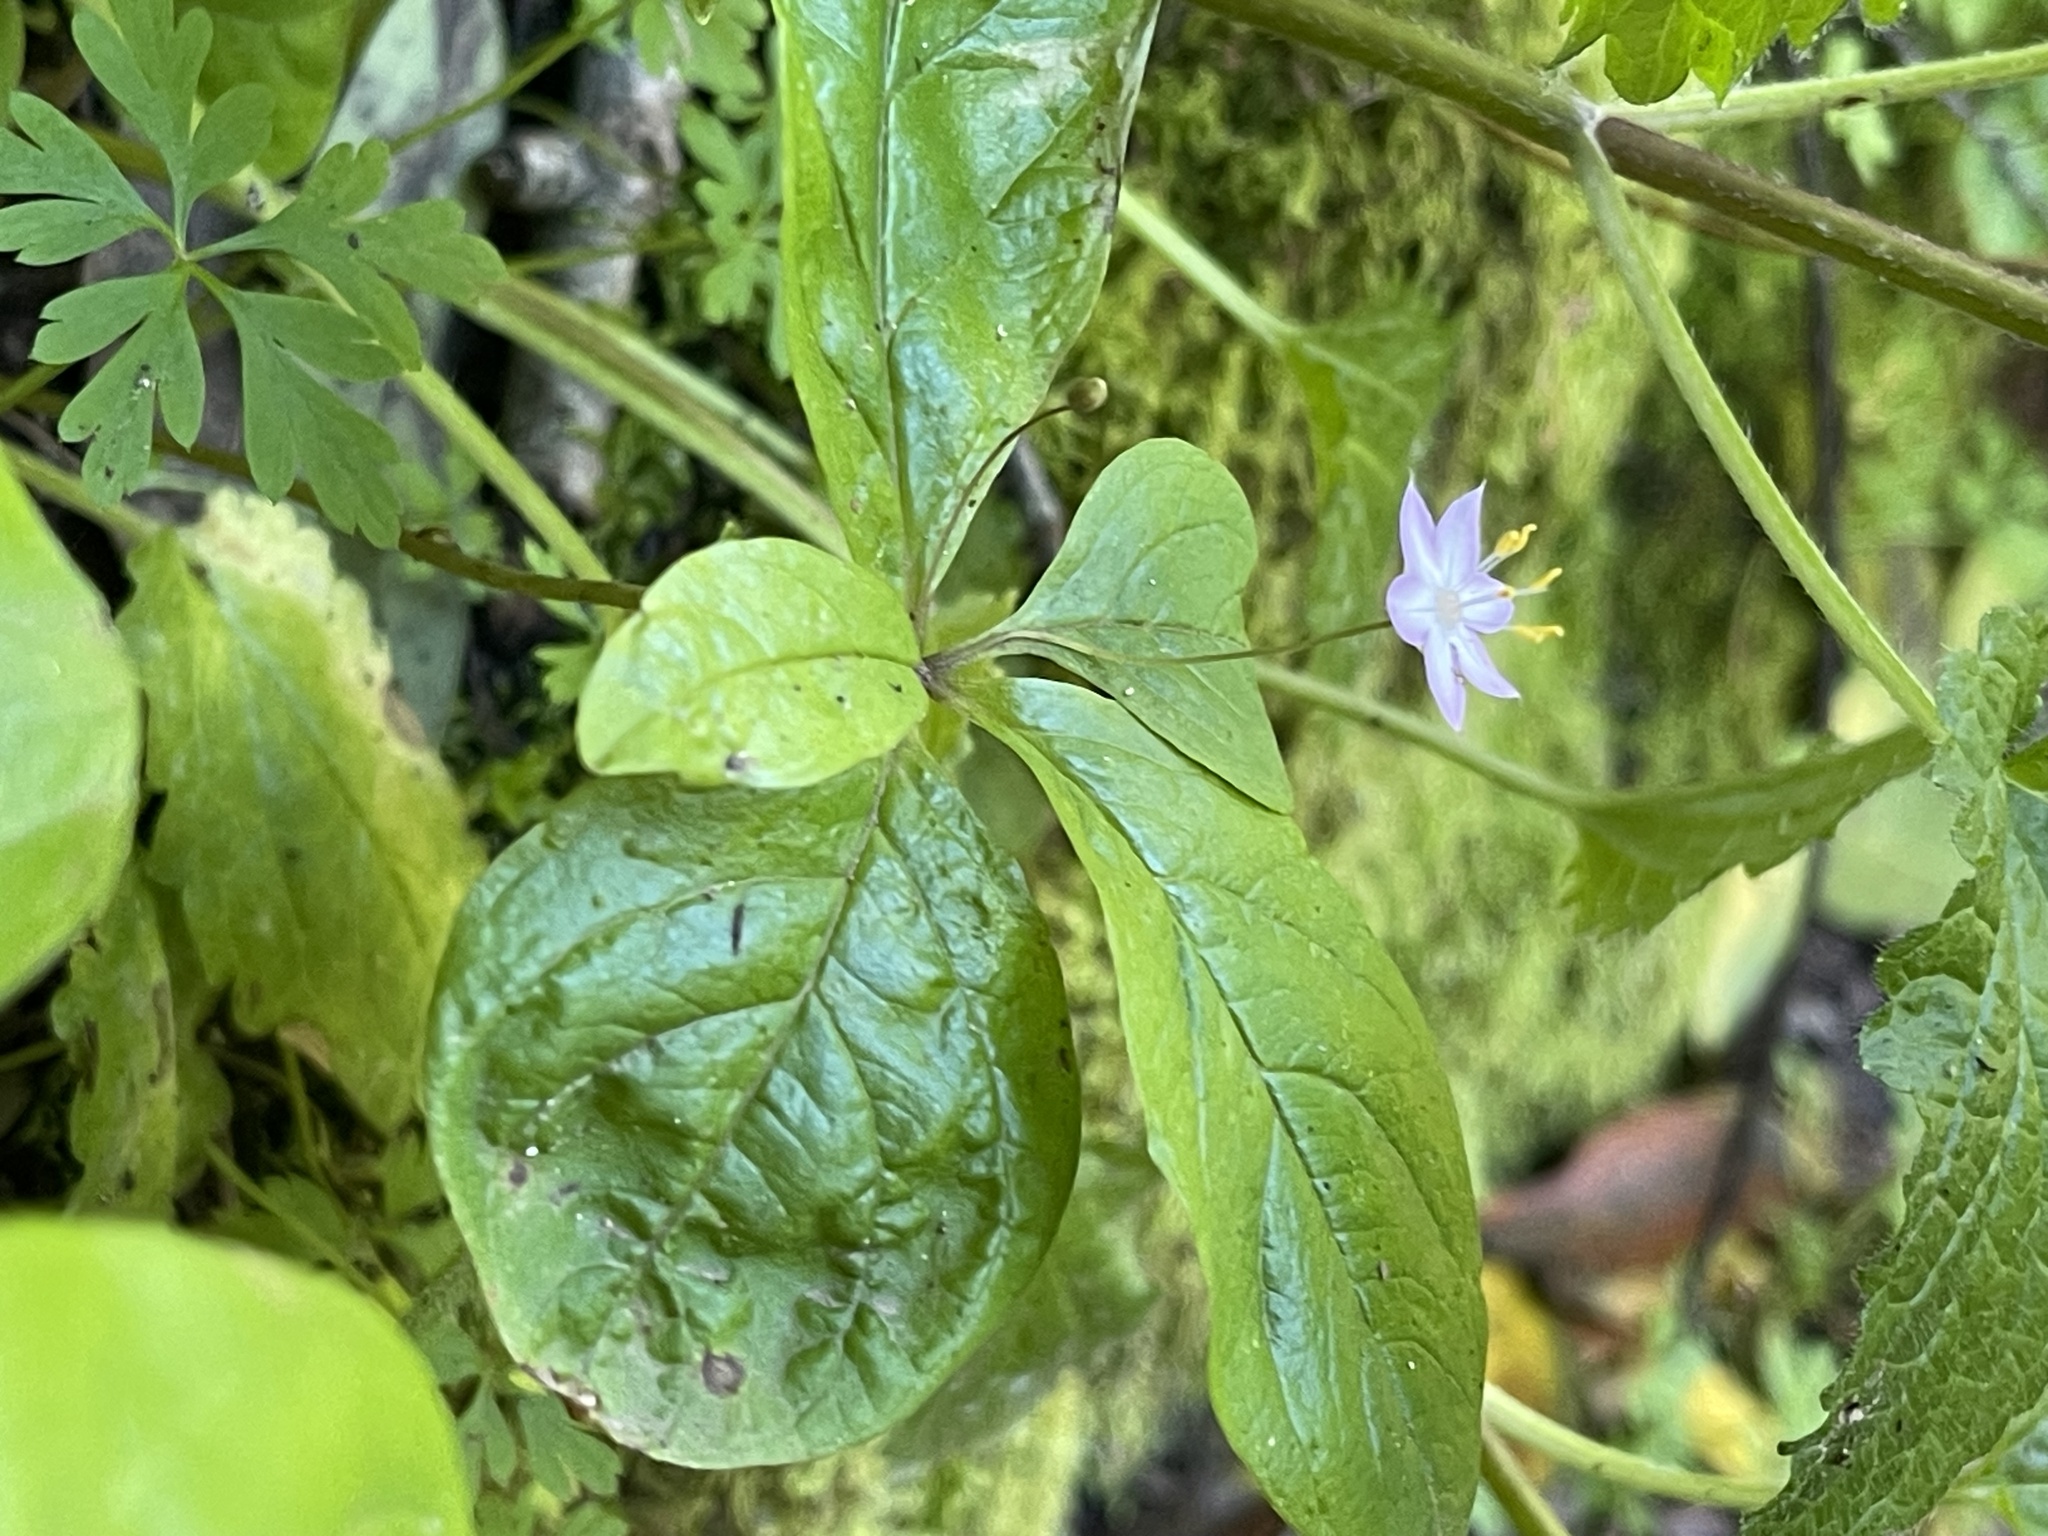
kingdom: Plantae
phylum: Tracheophyta
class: Magnoliopsida
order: Ericales
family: Primulaceae
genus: Lysimachia
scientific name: Lysimachia latifolia
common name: Pacific starflower
